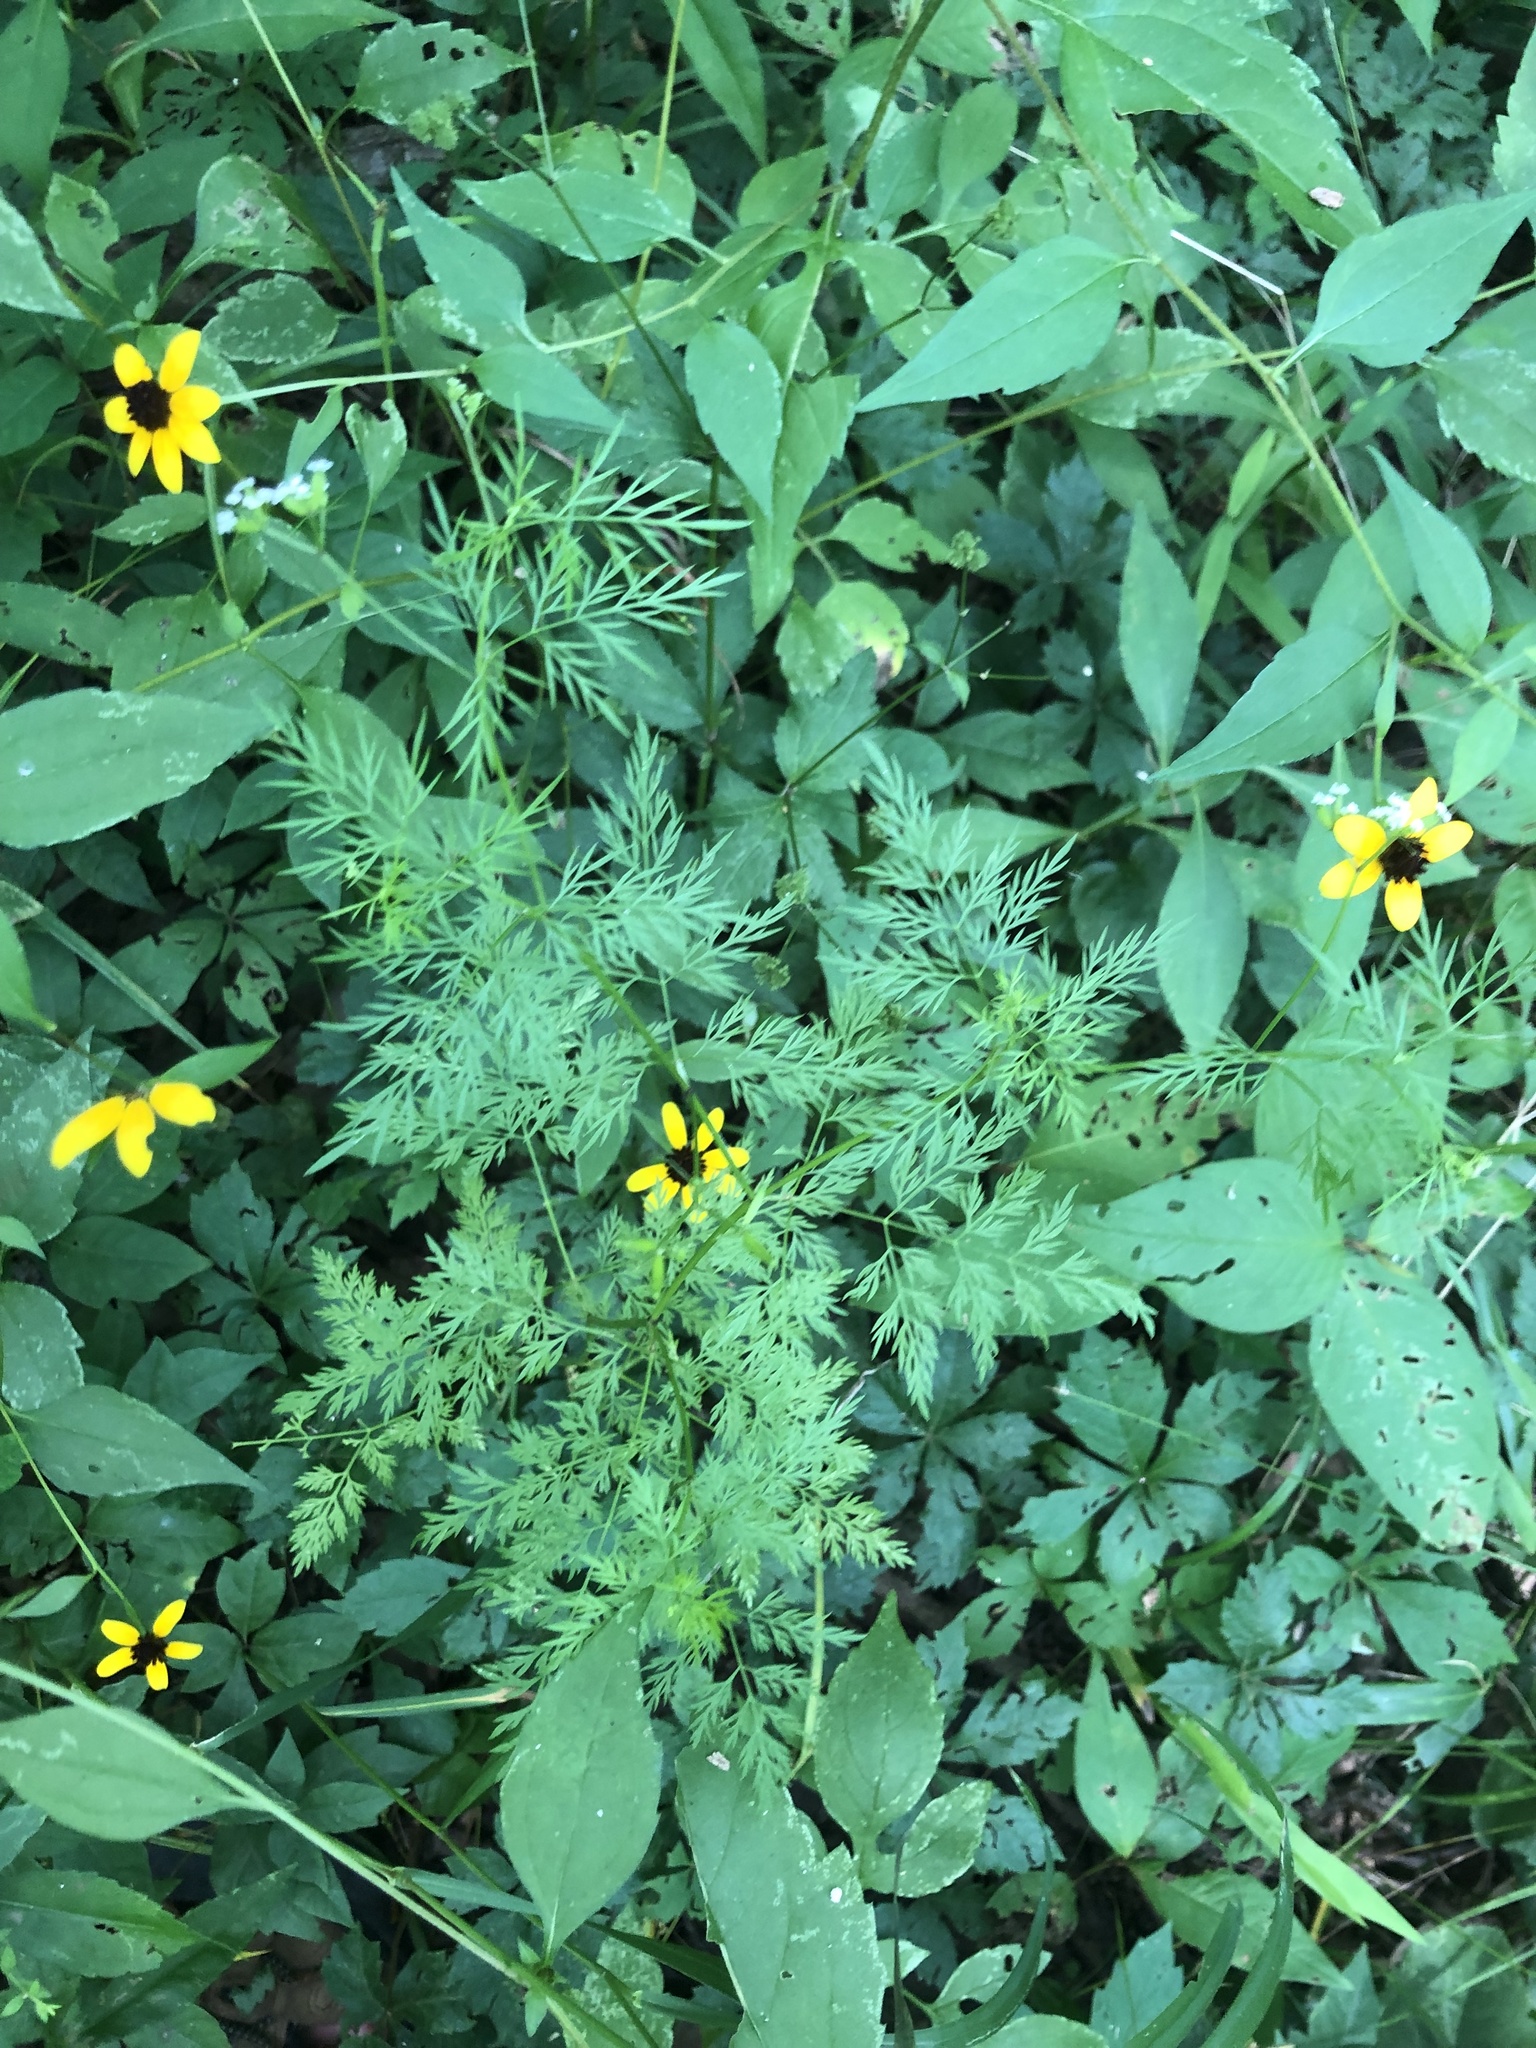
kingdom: Plantae
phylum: Tracheophyta
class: Magnoliopsida
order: Apiales
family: Apiaceae
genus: Trepocarpus
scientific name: Trepocarpus aethusae
